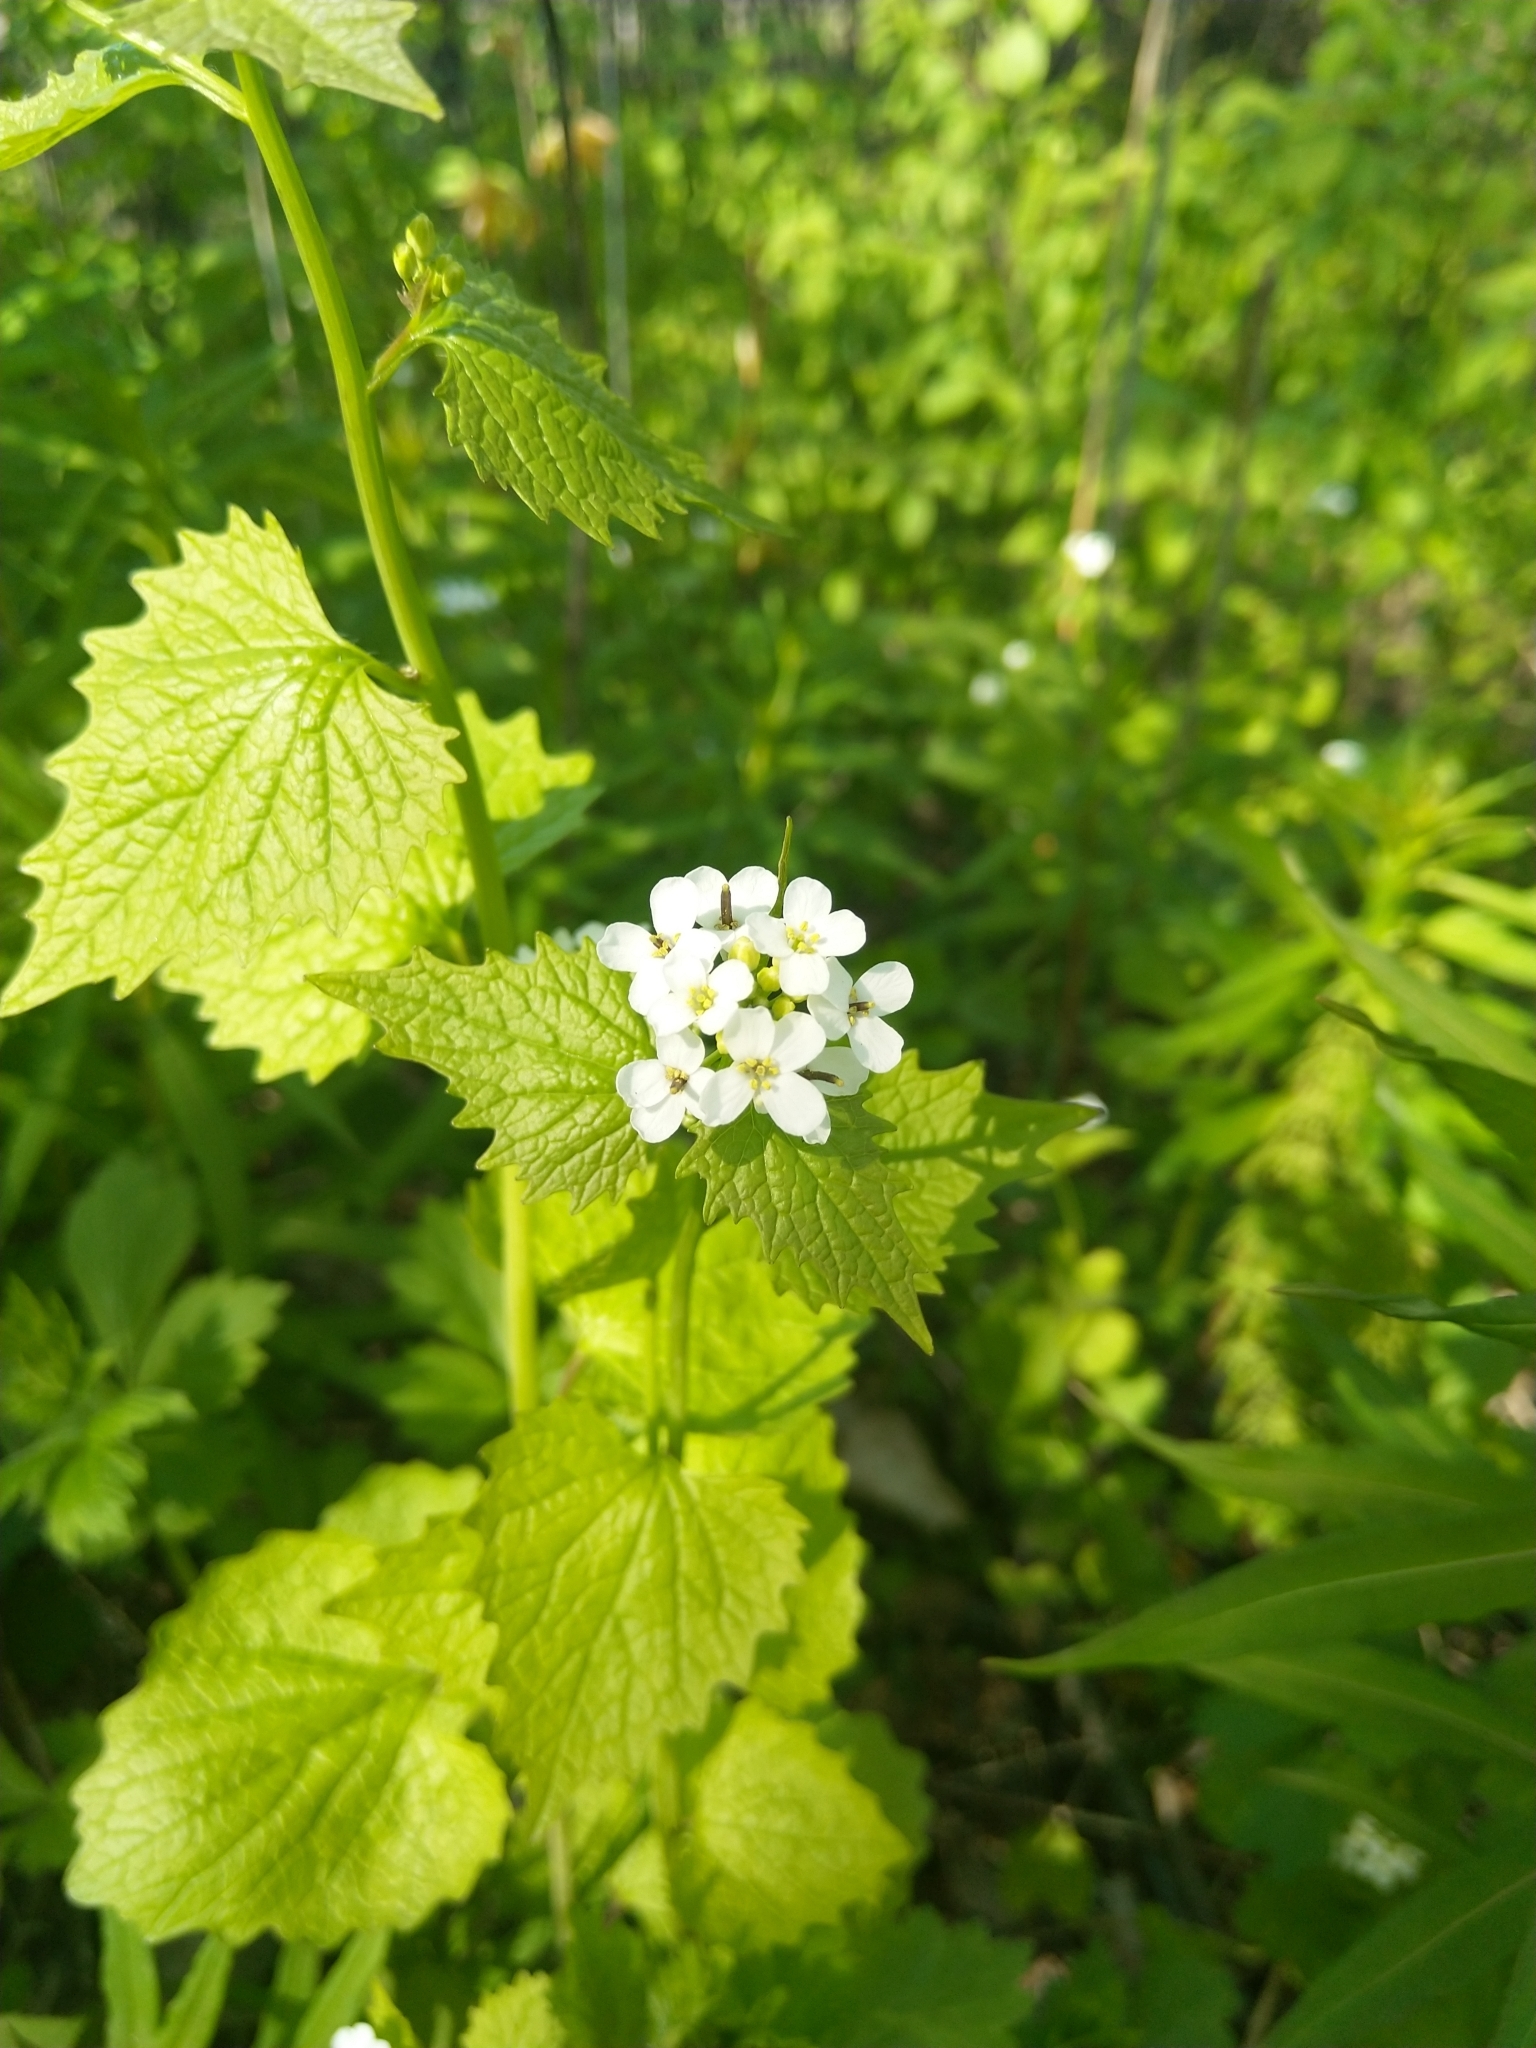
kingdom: Plantae
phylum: Tracheophyta
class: Magnoliopsida
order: Brassicales
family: Brassicaceae
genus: Alliaria
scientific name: Alliaria petiolata
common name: Garlic mustard
